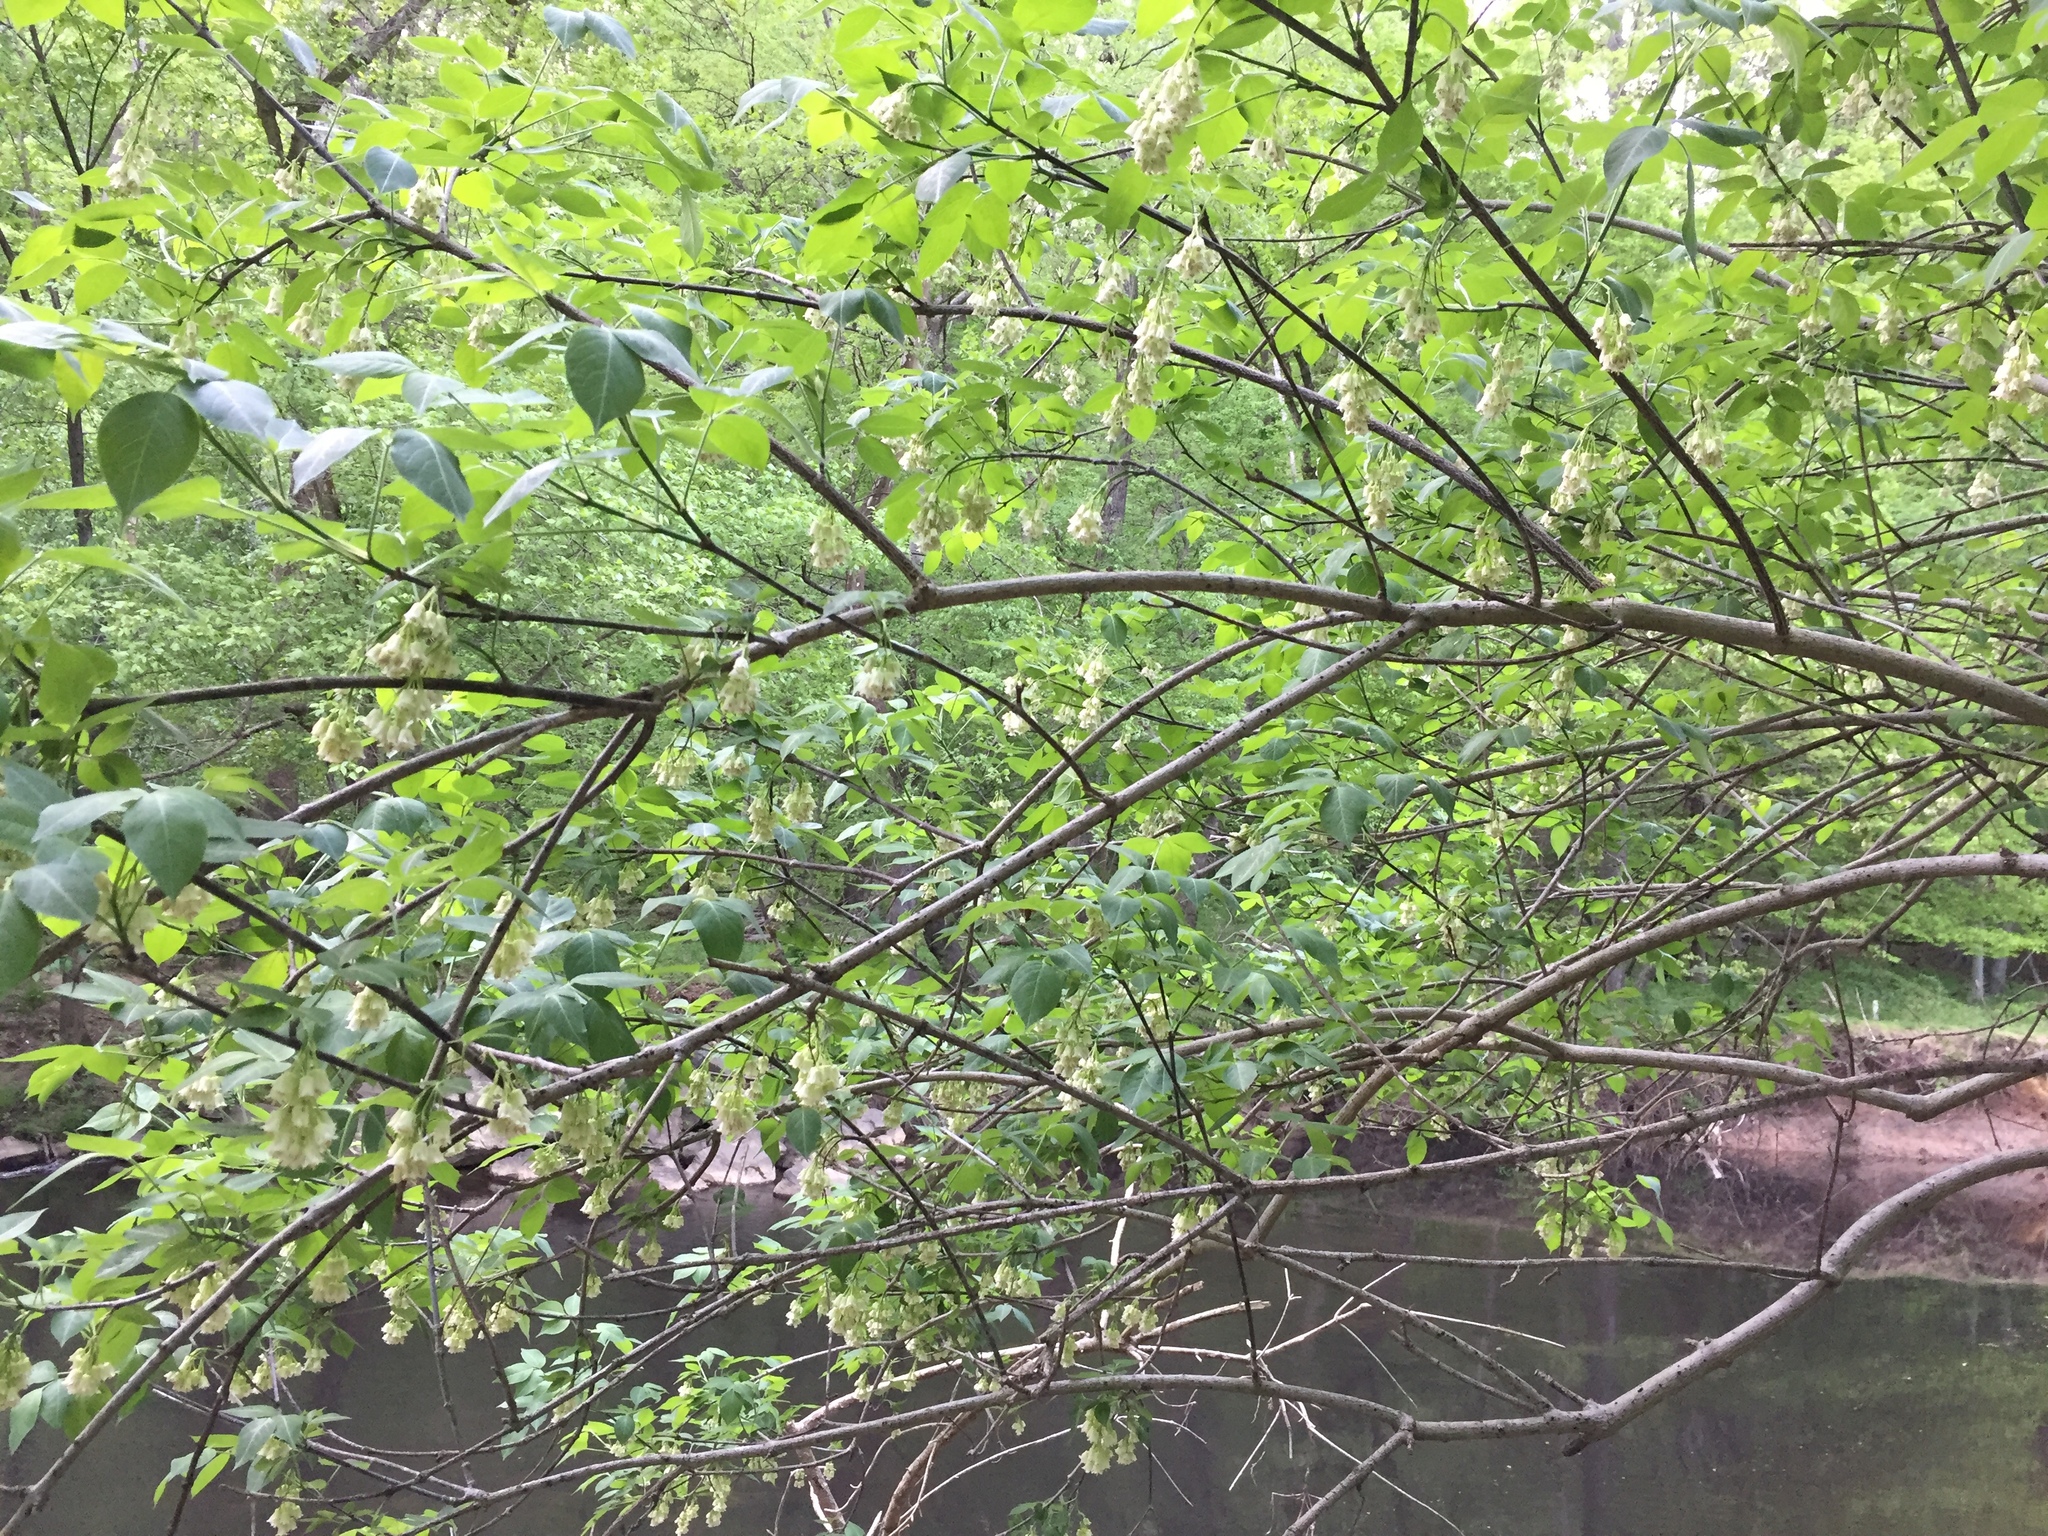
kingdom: Plantae
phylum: Tracheophyta
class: Magnoliopsida
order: Crossosomatales
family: Staphyleaceae
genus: Staphylea
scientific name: Staphylea trifolia
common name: American bladdernut
